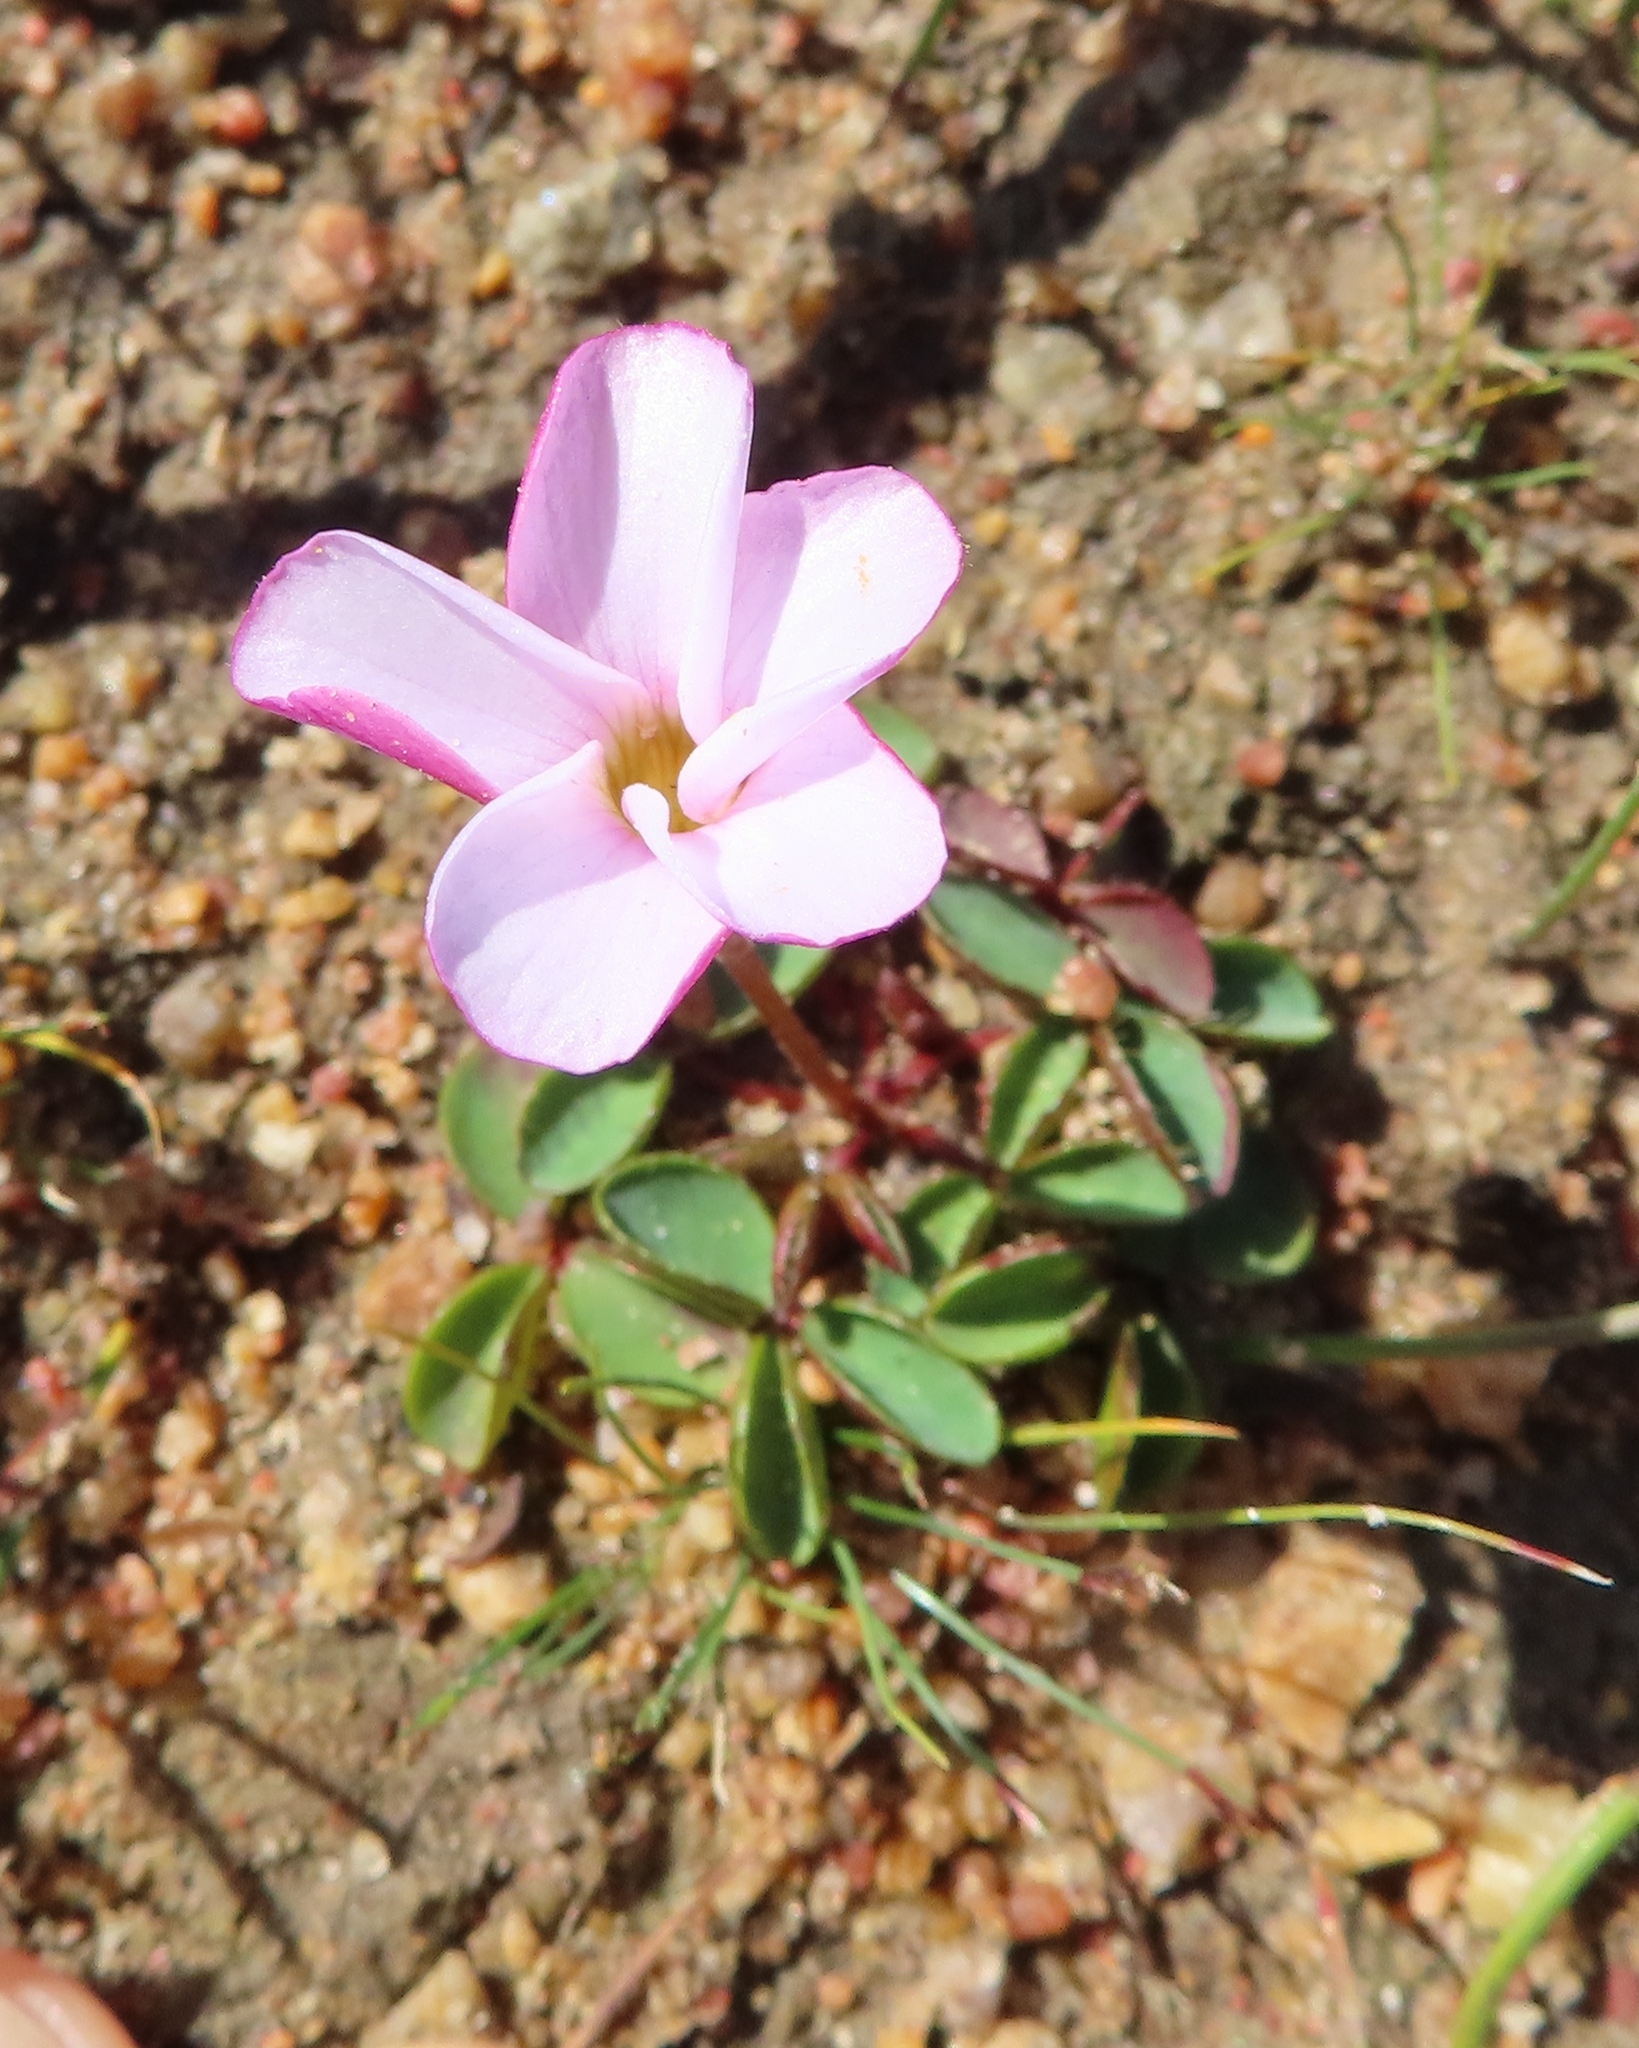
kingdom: Plantae
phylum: Tracheophyta
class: Magnoliopsida
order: Oxalidales
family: Oxalidaceae
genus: Oxalis
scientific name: Oxalis minuta
